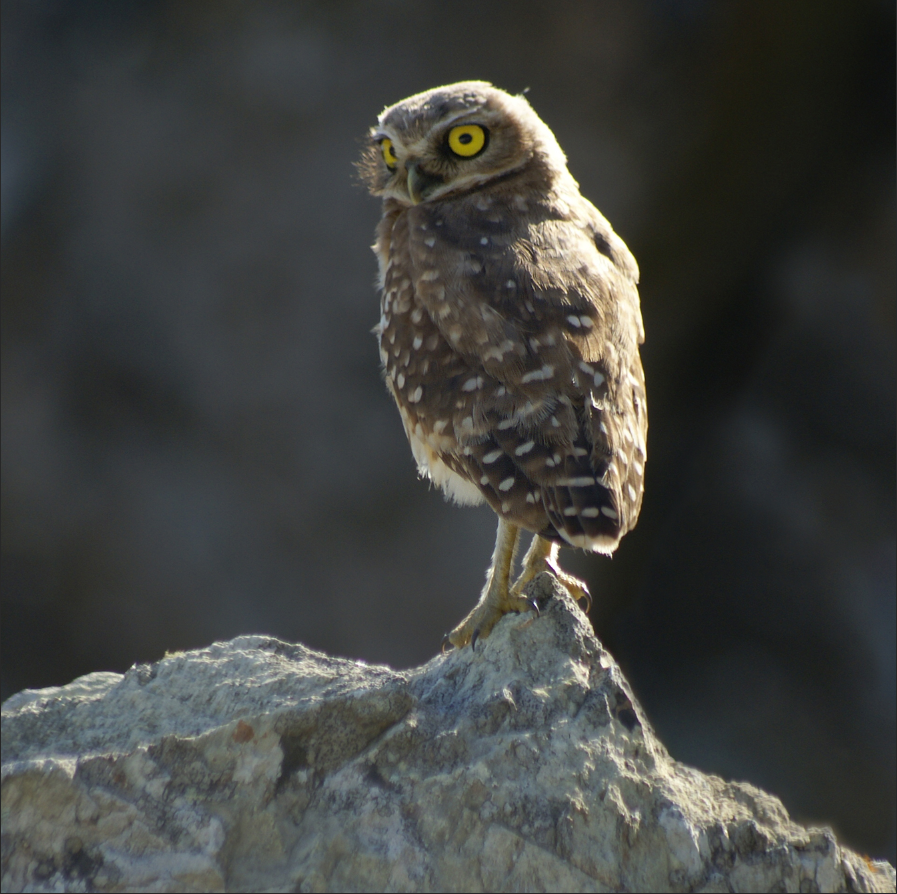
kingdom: Animalia
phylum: Chordata
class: Aves
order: Strigiformes
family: Strigidae
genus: Athene
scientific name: Athene cunicularia
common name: Burrowing owl
